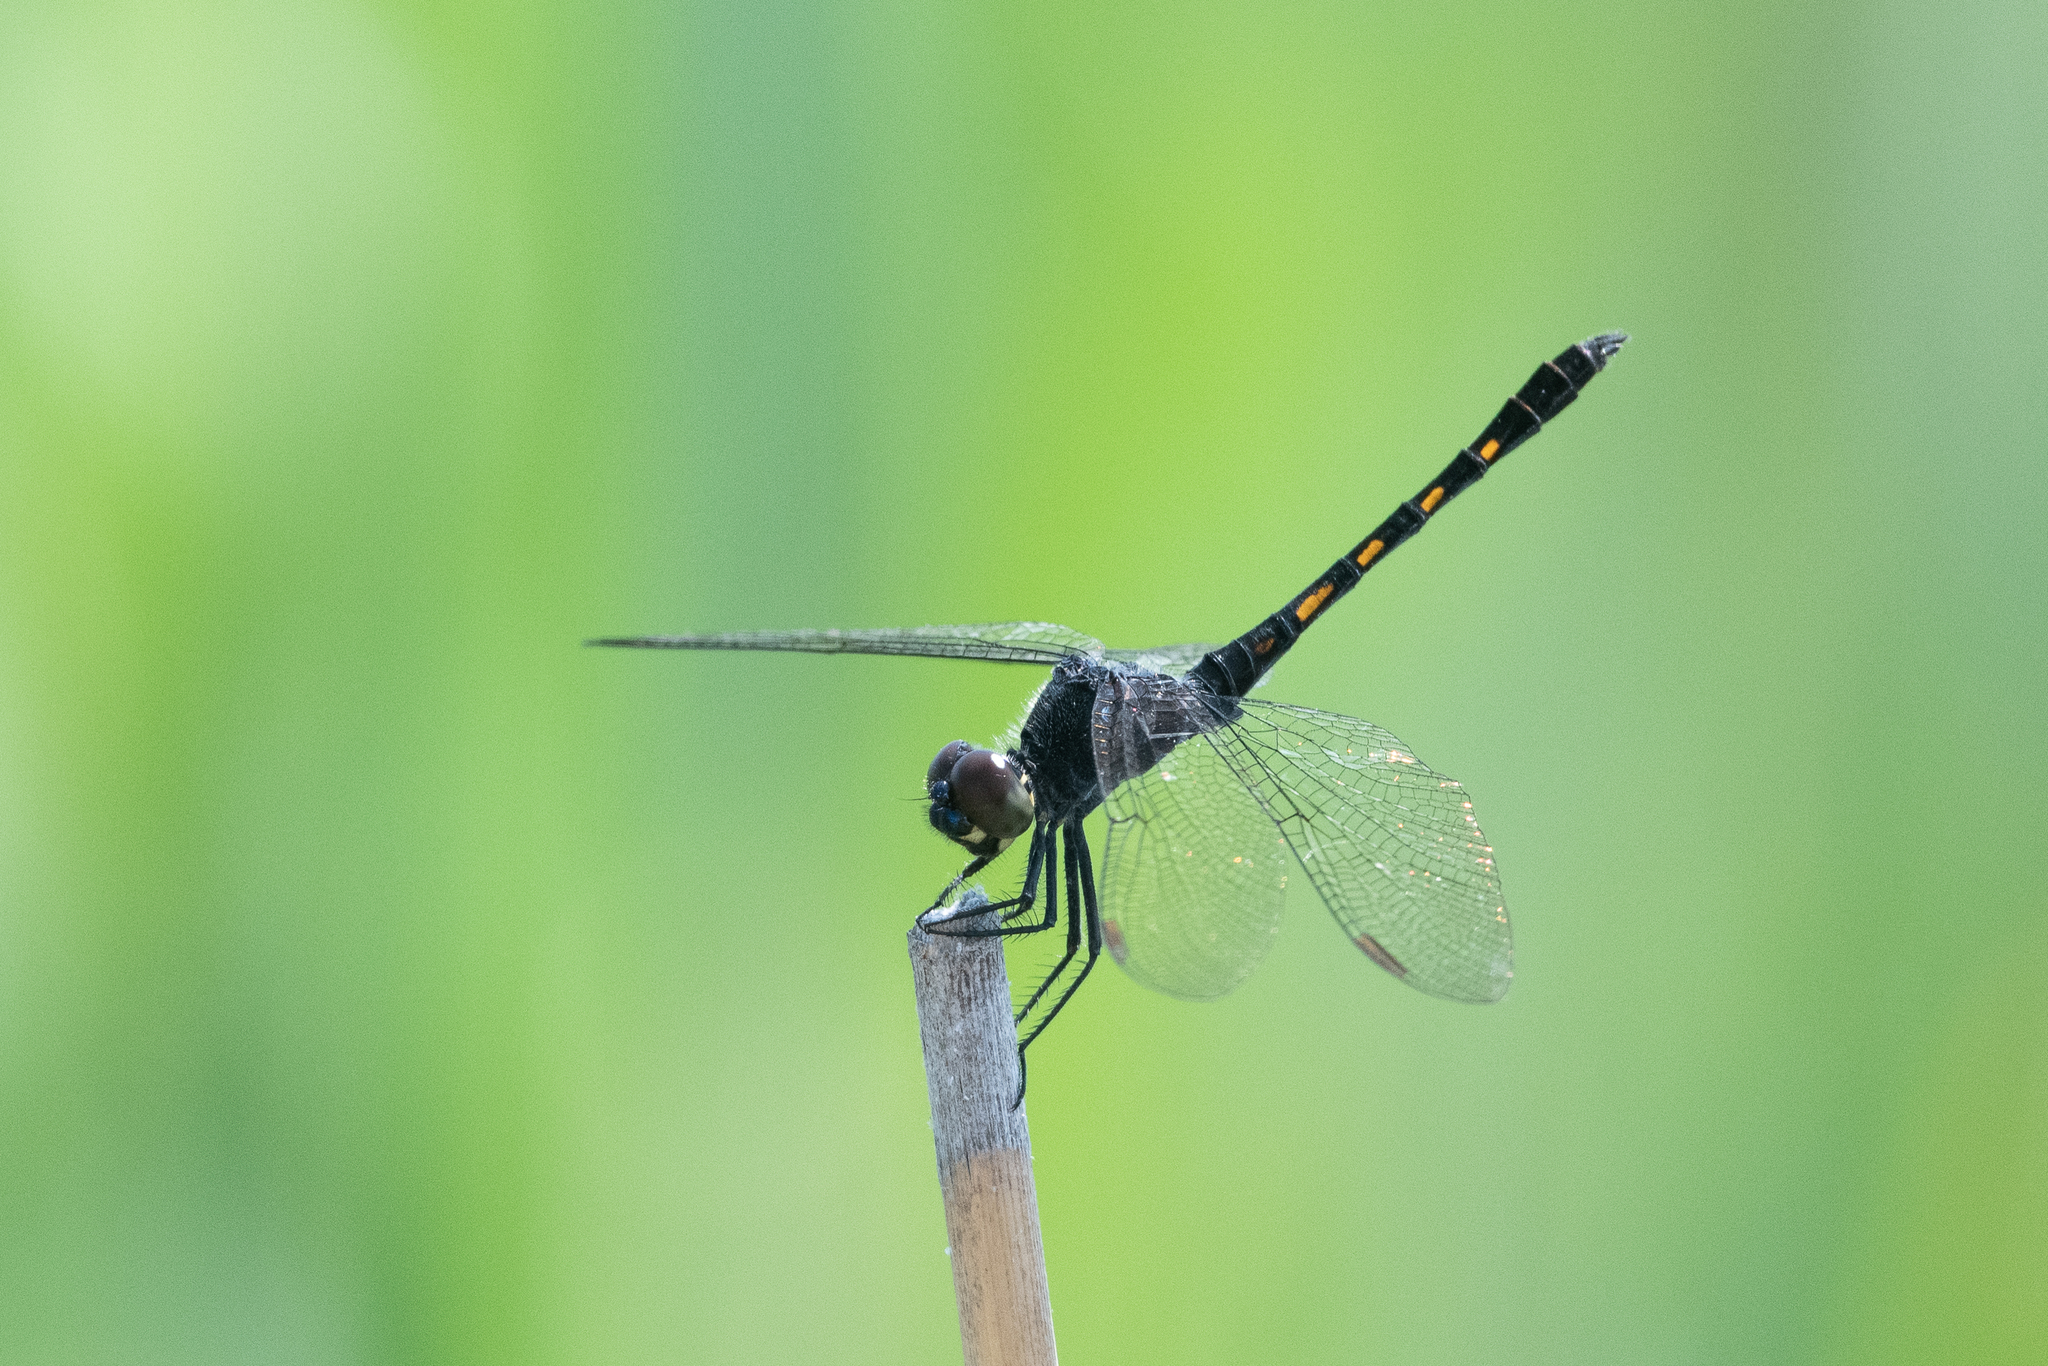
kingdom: Animalia
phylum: Arthropoda
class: Insecta
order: Odonata
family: Libellulidae
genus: Erythrodiplax
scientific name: Erythrodiplax berenice
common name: Seaside dragonlet
